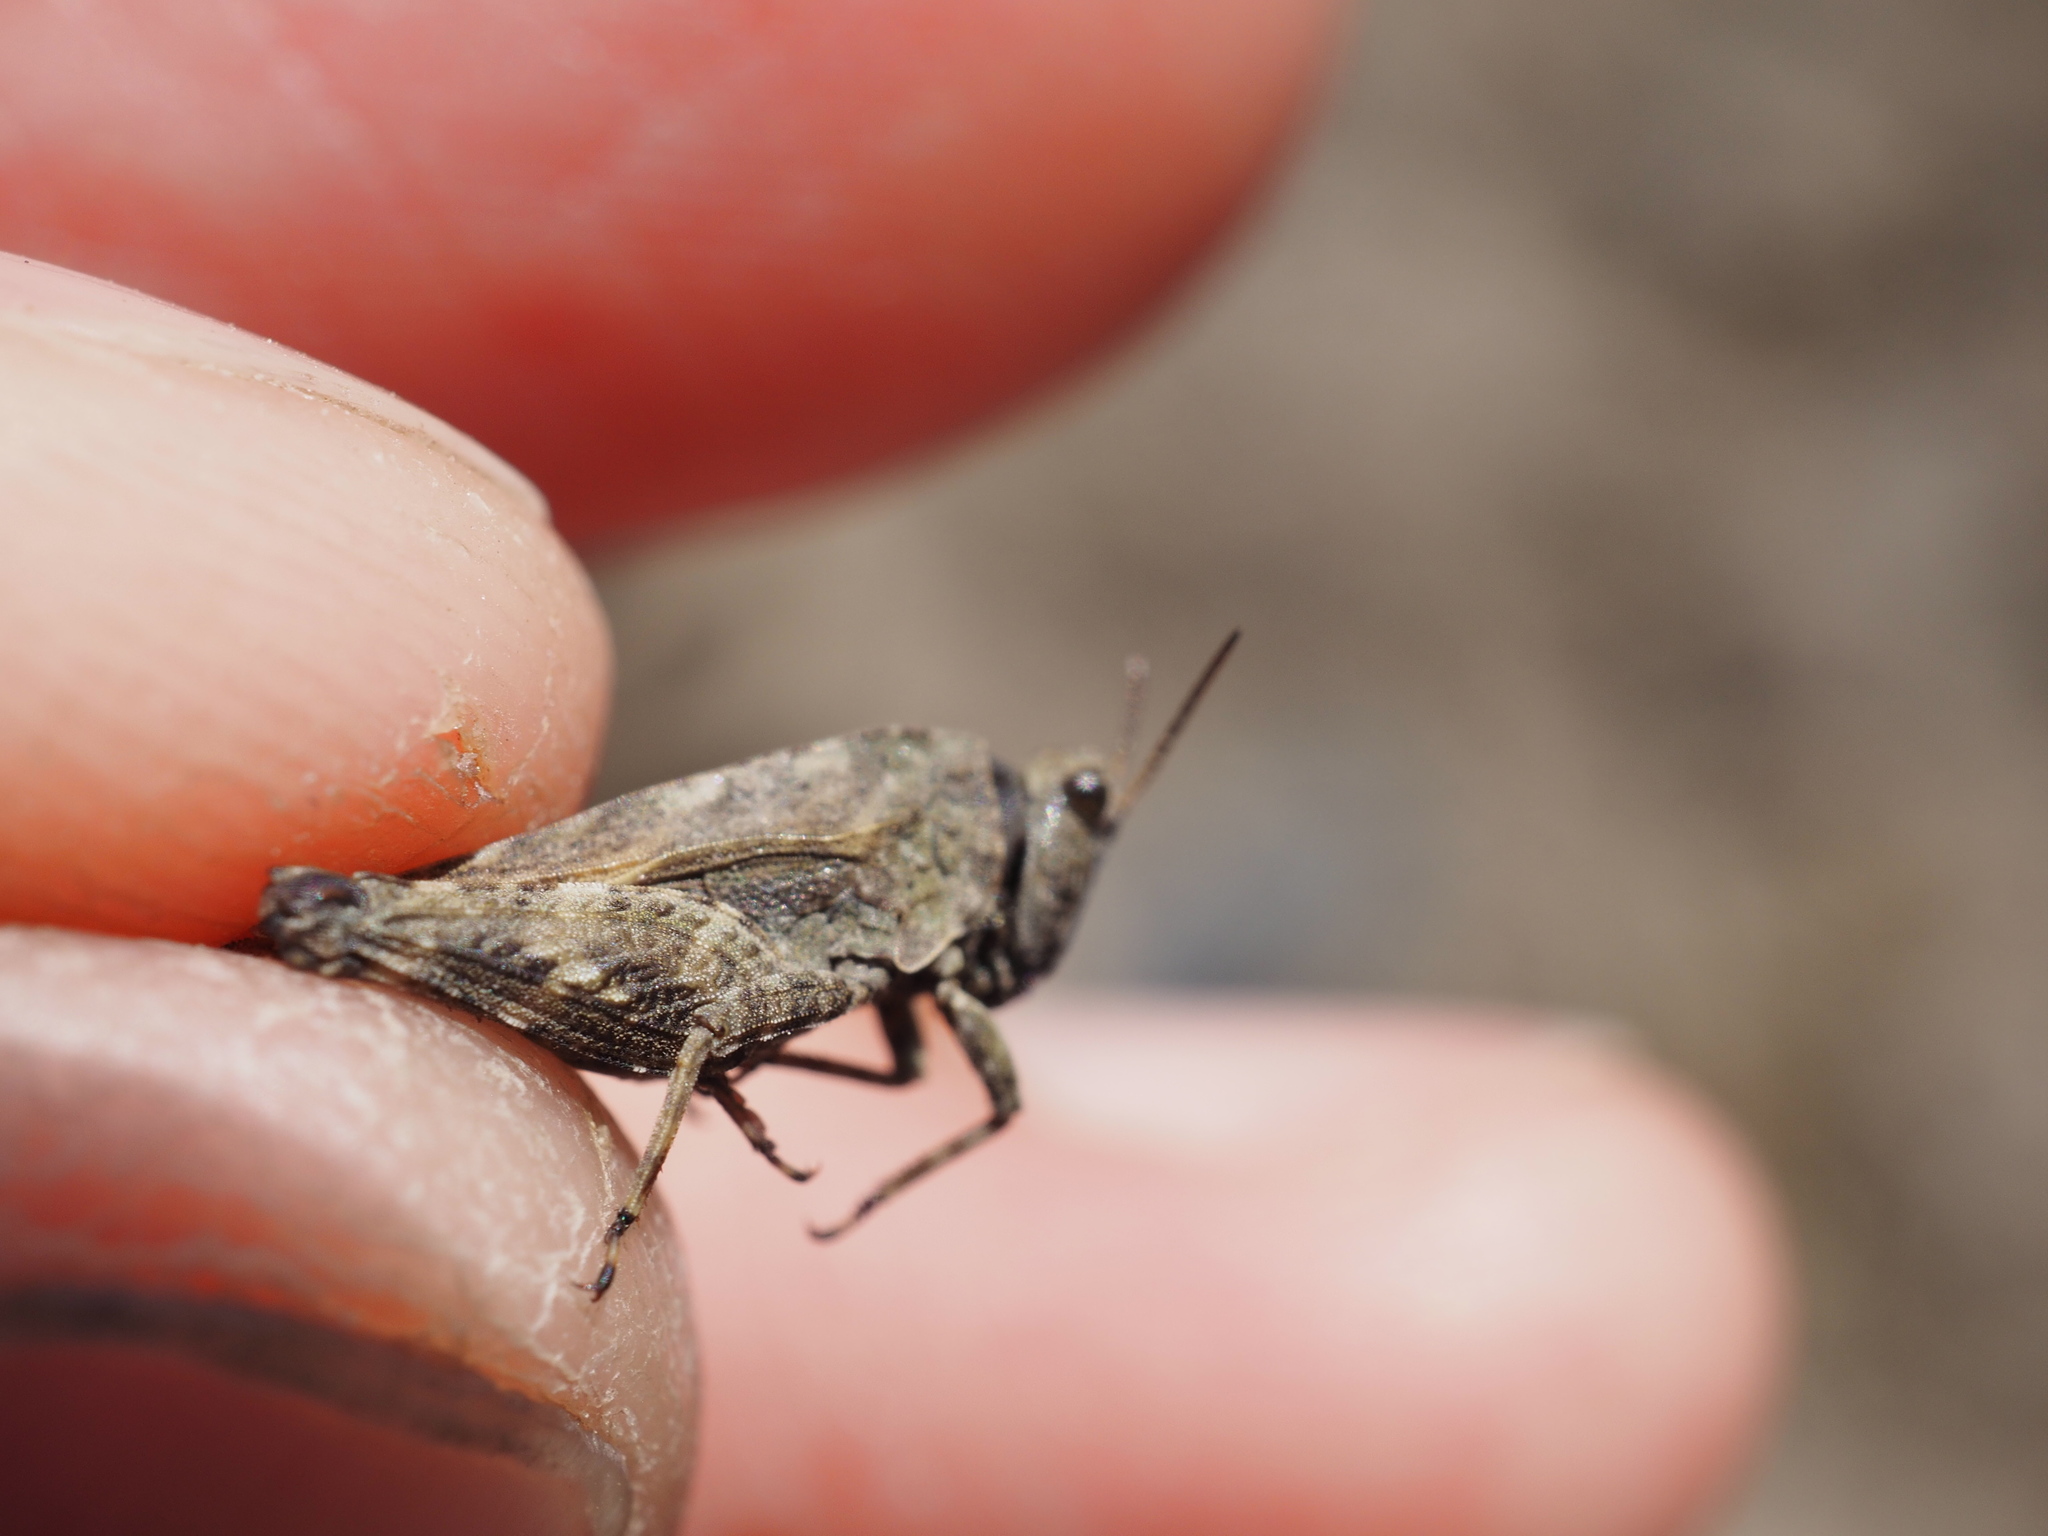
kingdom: Animalia
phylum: Arthropoda
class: Insecta
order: Orthoptera
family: Tetrigidae
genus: Tetrix
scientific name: Tetrix undulata
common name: Common groundhopper
